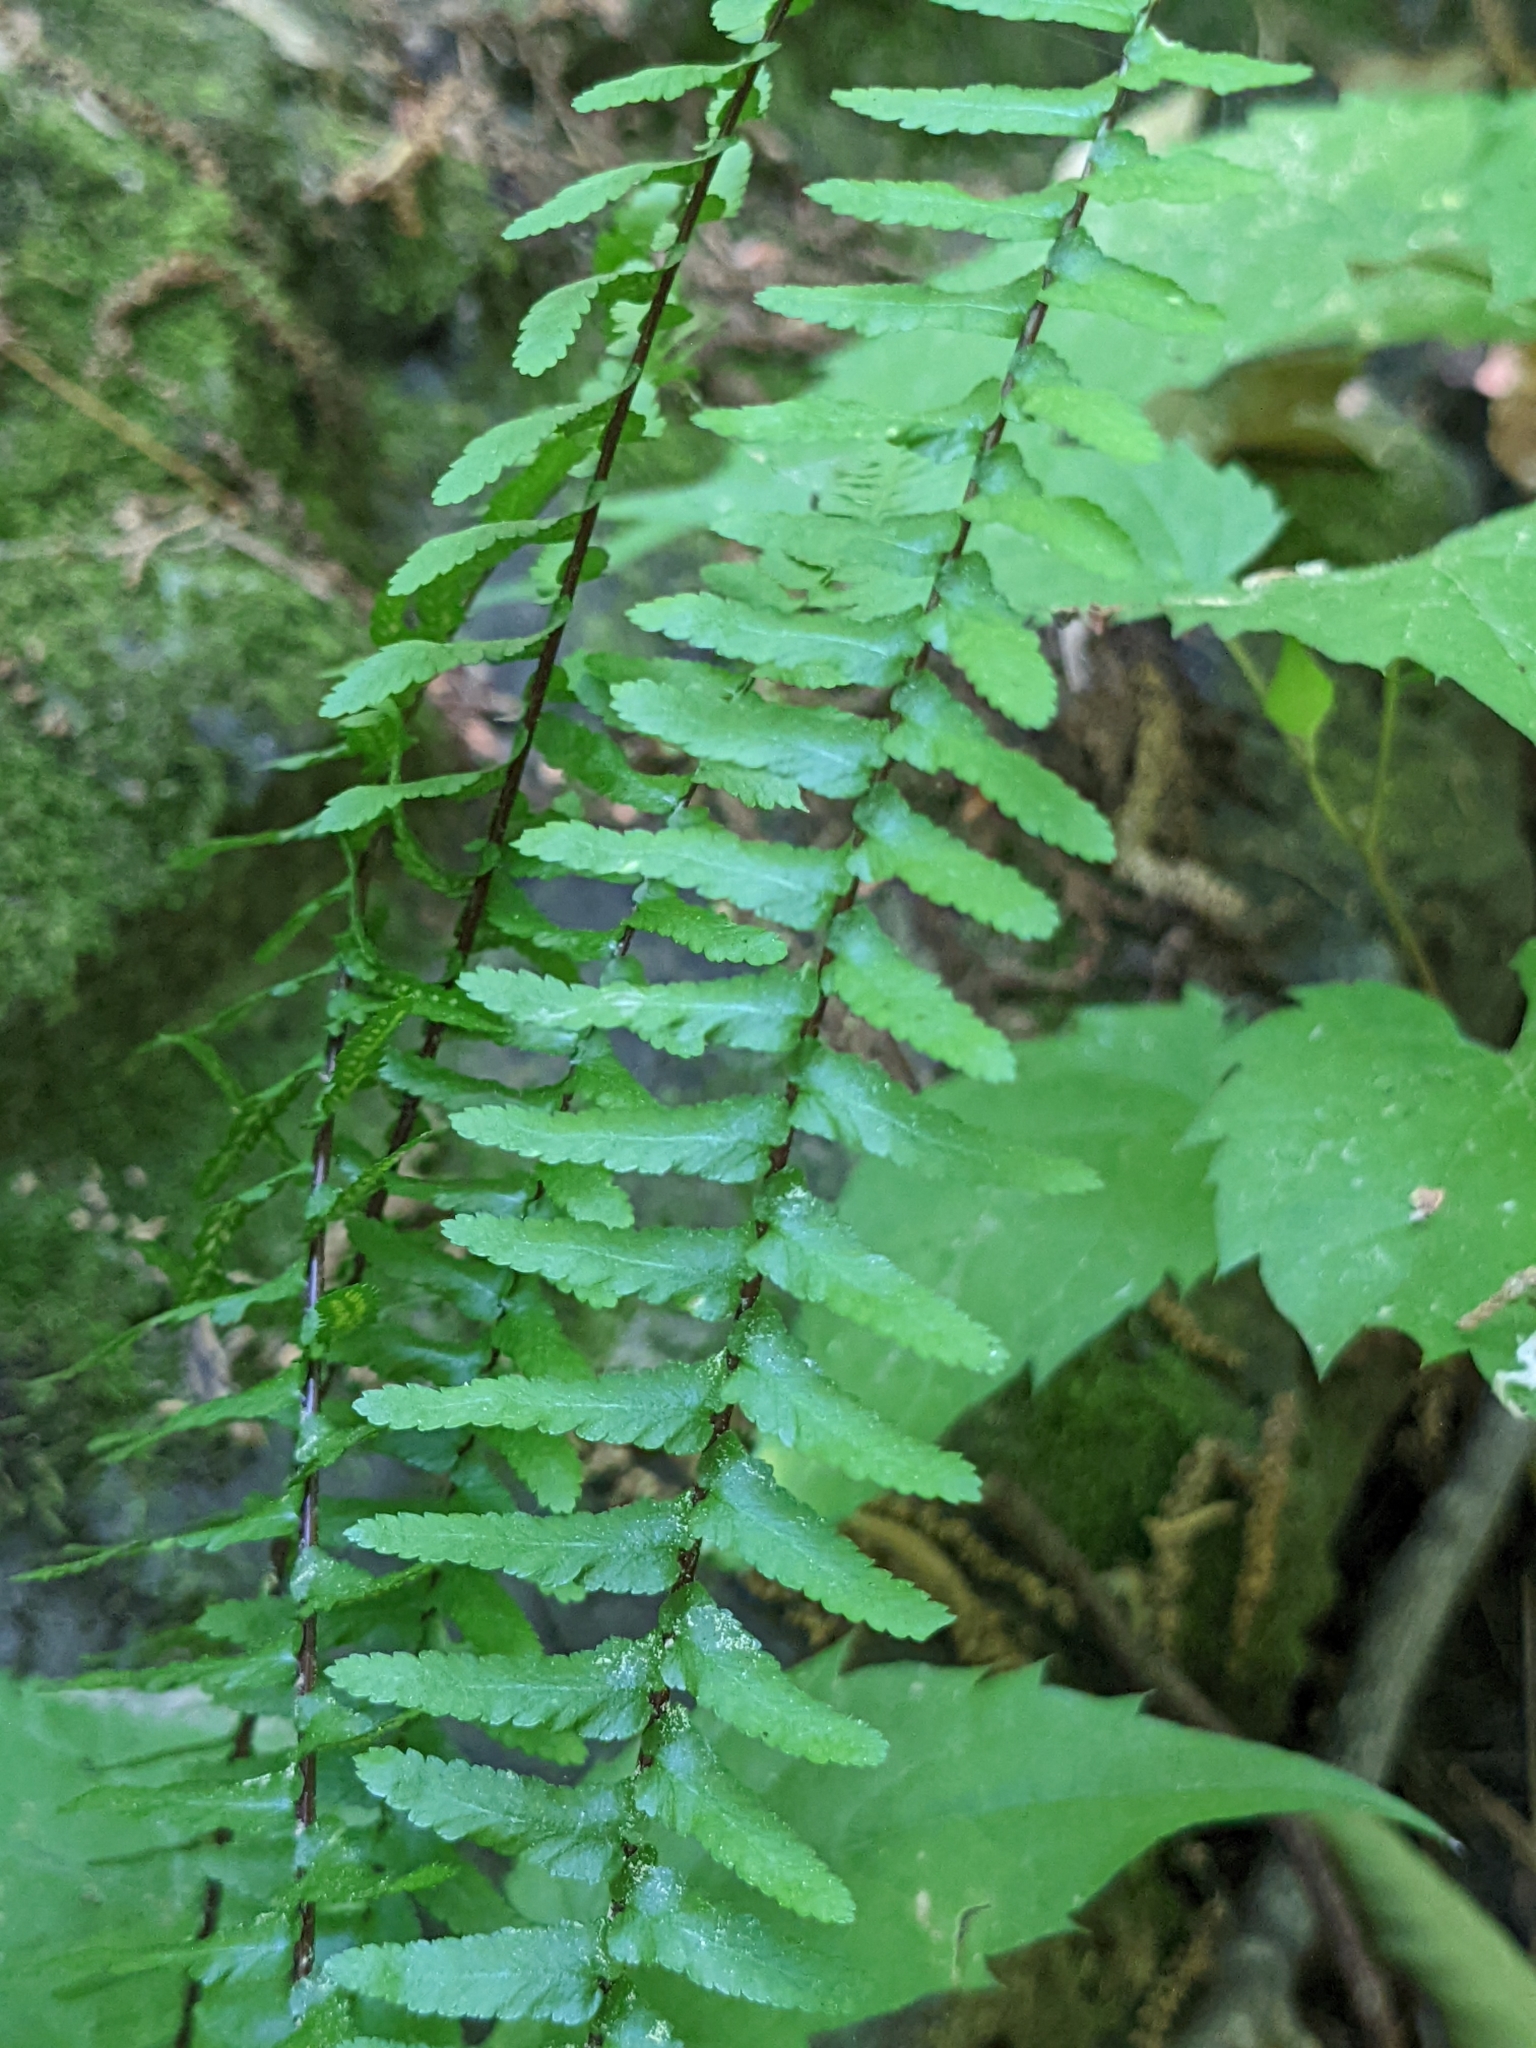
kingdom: Plantae
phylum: Tracheophyta
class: Polypodiopsida
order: Polypodiales
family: Aspleniaceae
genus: Asplenium
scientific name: Asplenium platyneuron
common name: Ebony spleenwort
